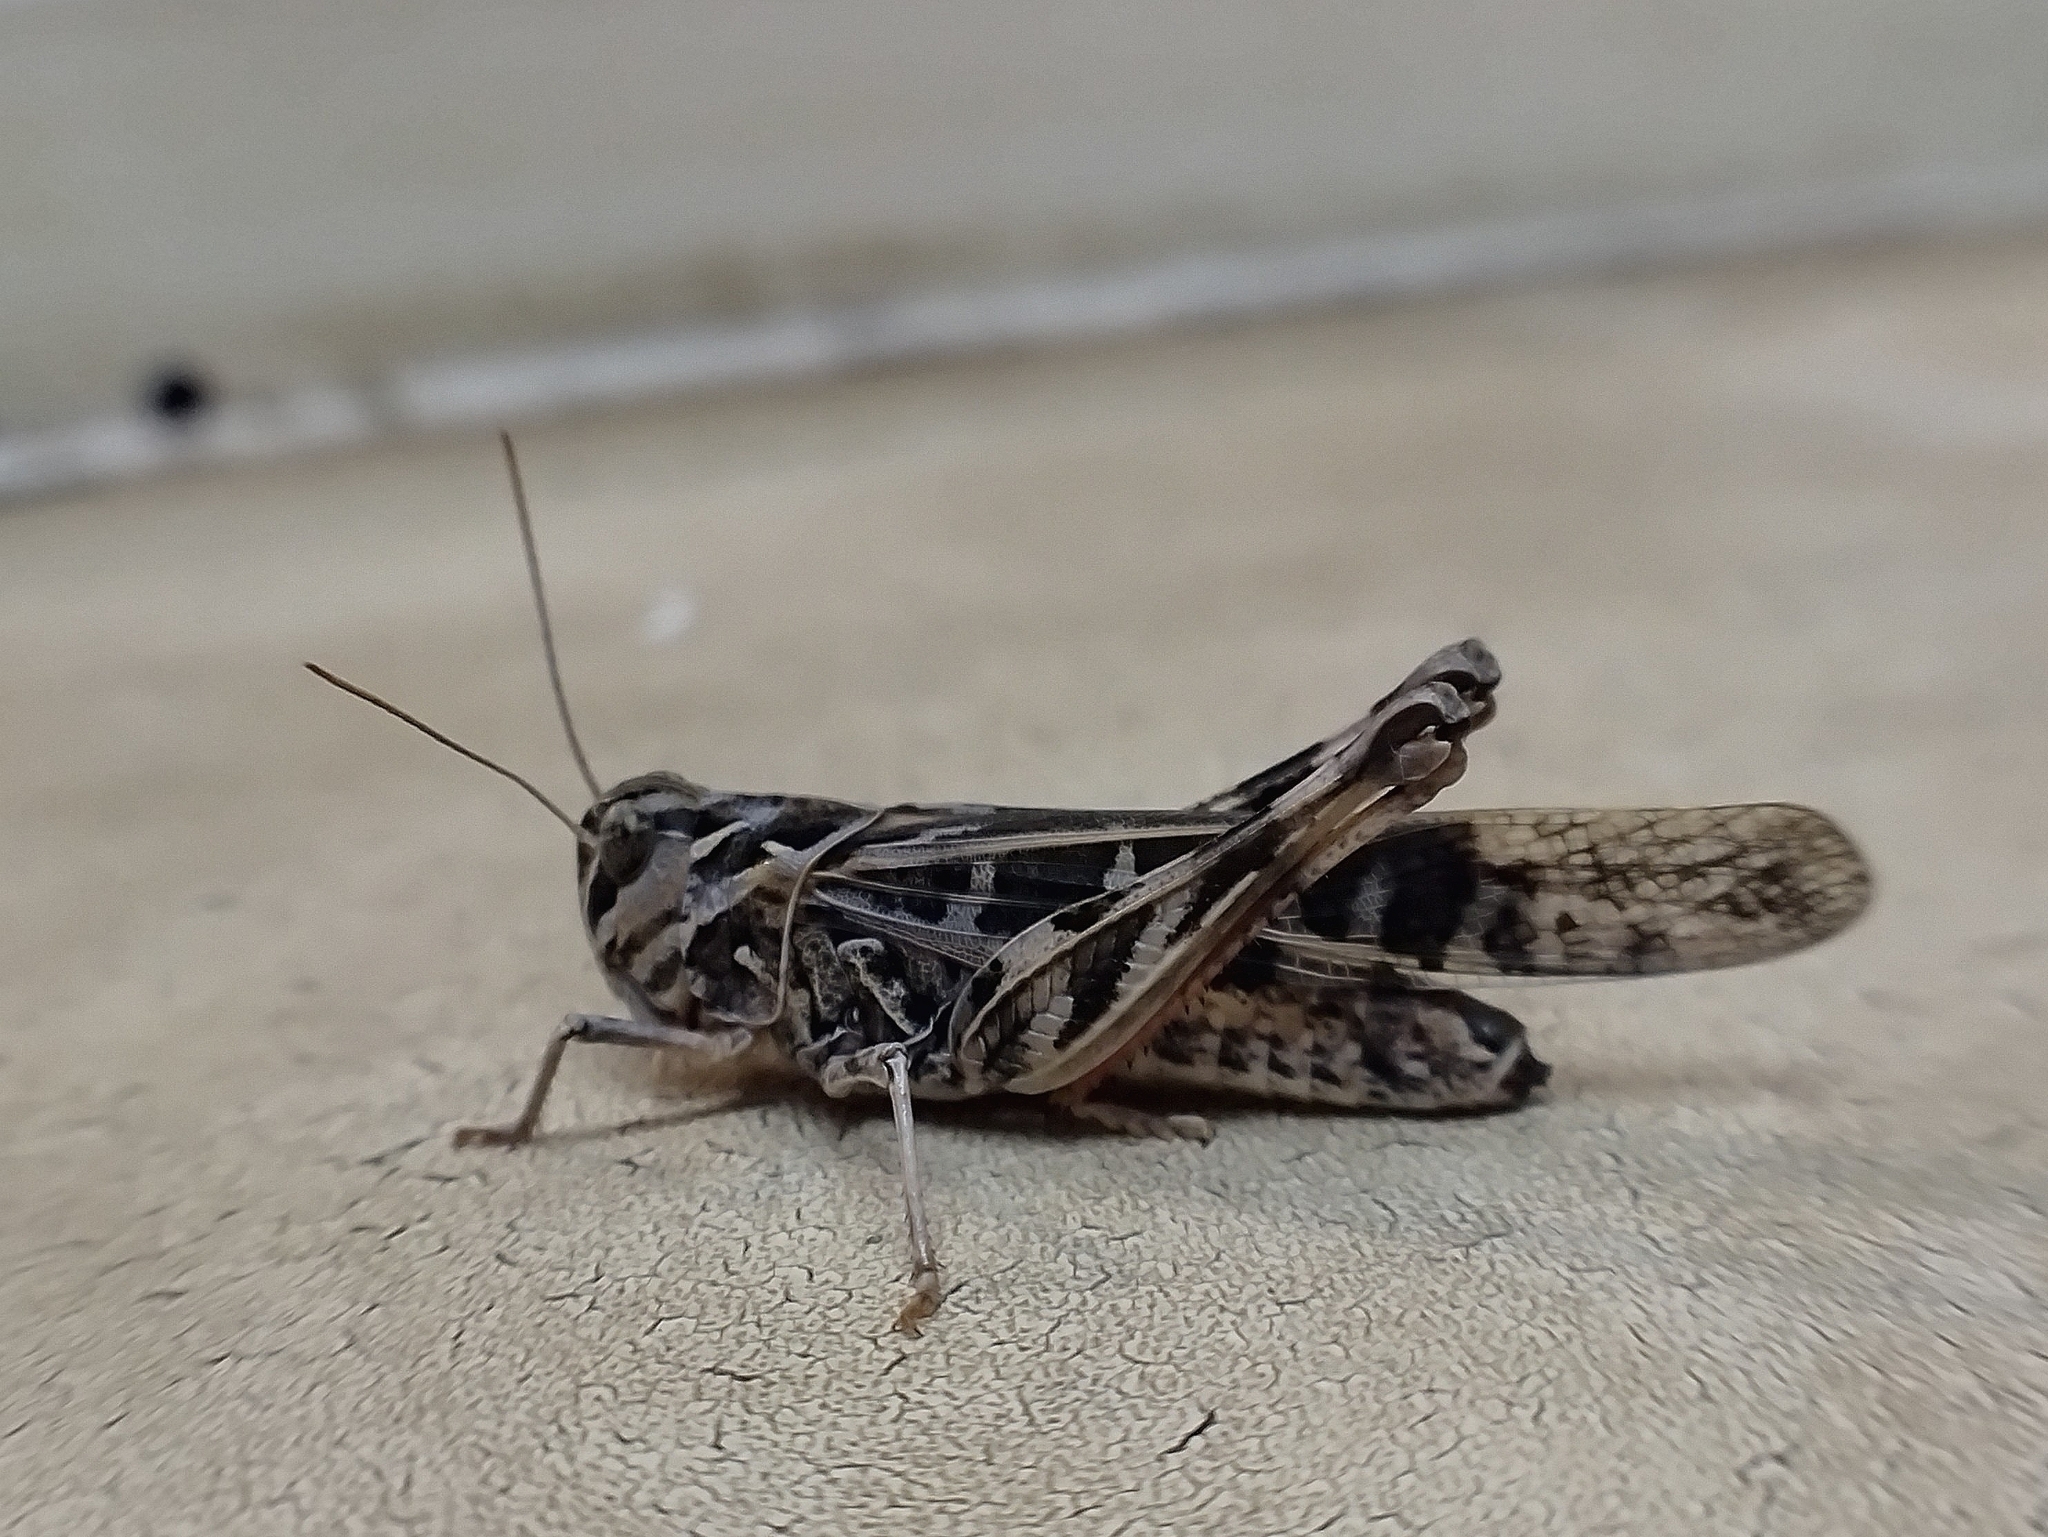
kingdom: Animalia
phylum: Arthropoda
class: Insecta
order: Orthoptera
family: Acrididae
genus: Oedaleus
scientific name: Oedaleus decorus
